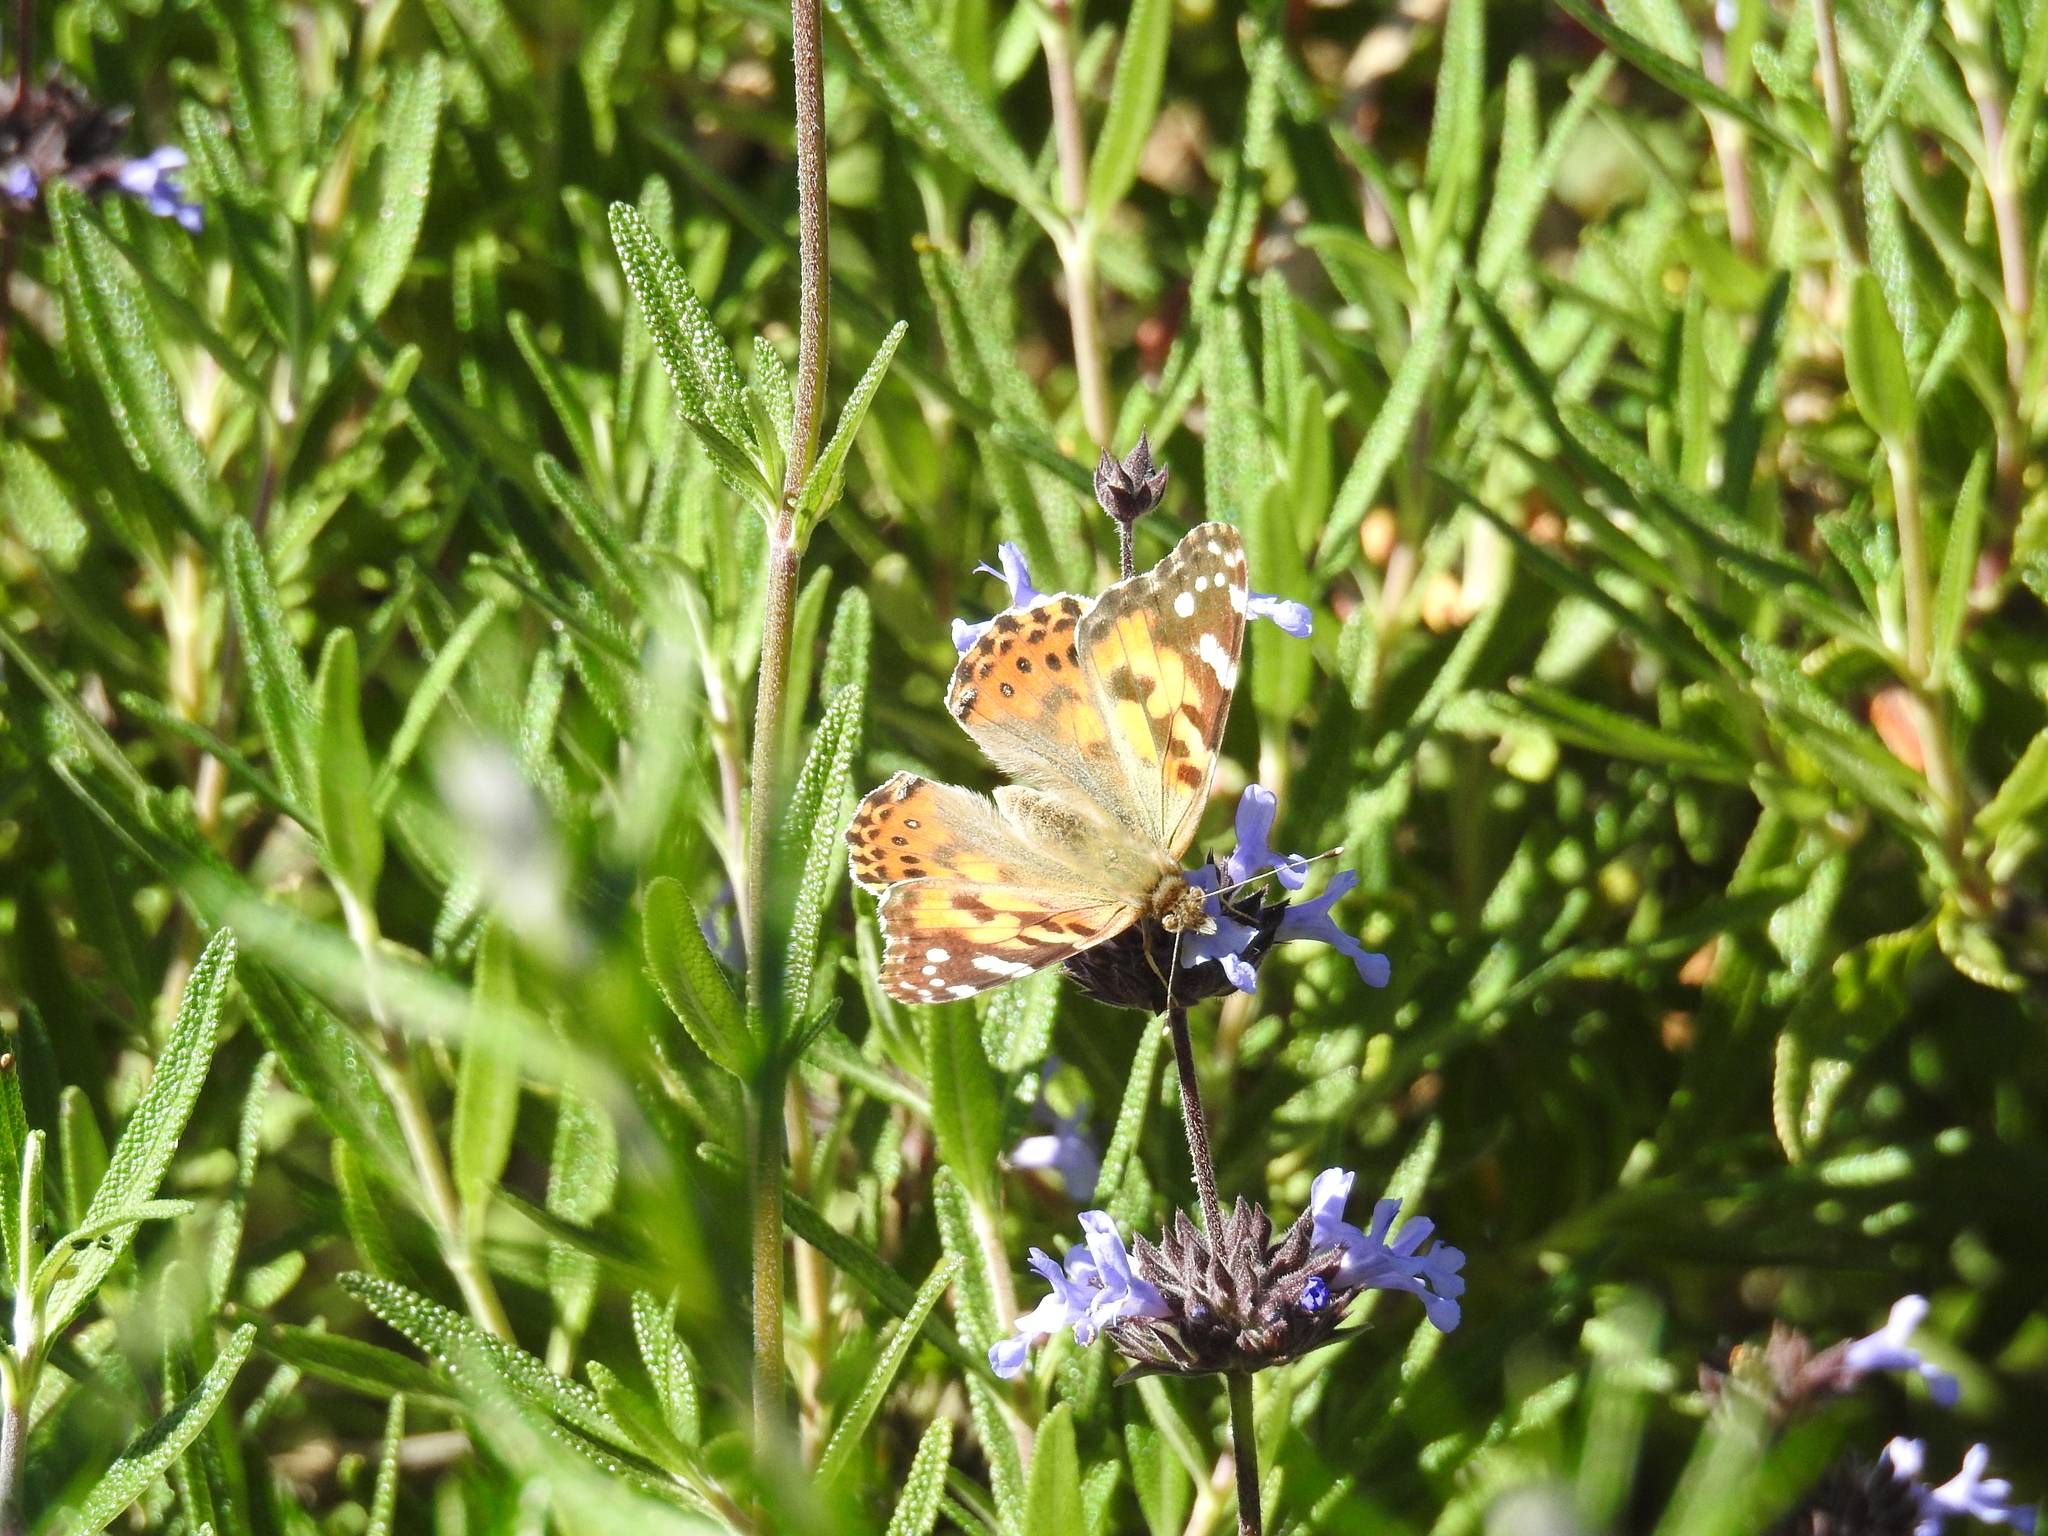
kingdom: Animalia
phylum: Arthropoda
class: Insecta
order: Lepidoptera
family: Nymphalidae
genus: Vanessa
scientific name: Vanessa cardui
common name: Painted lady
